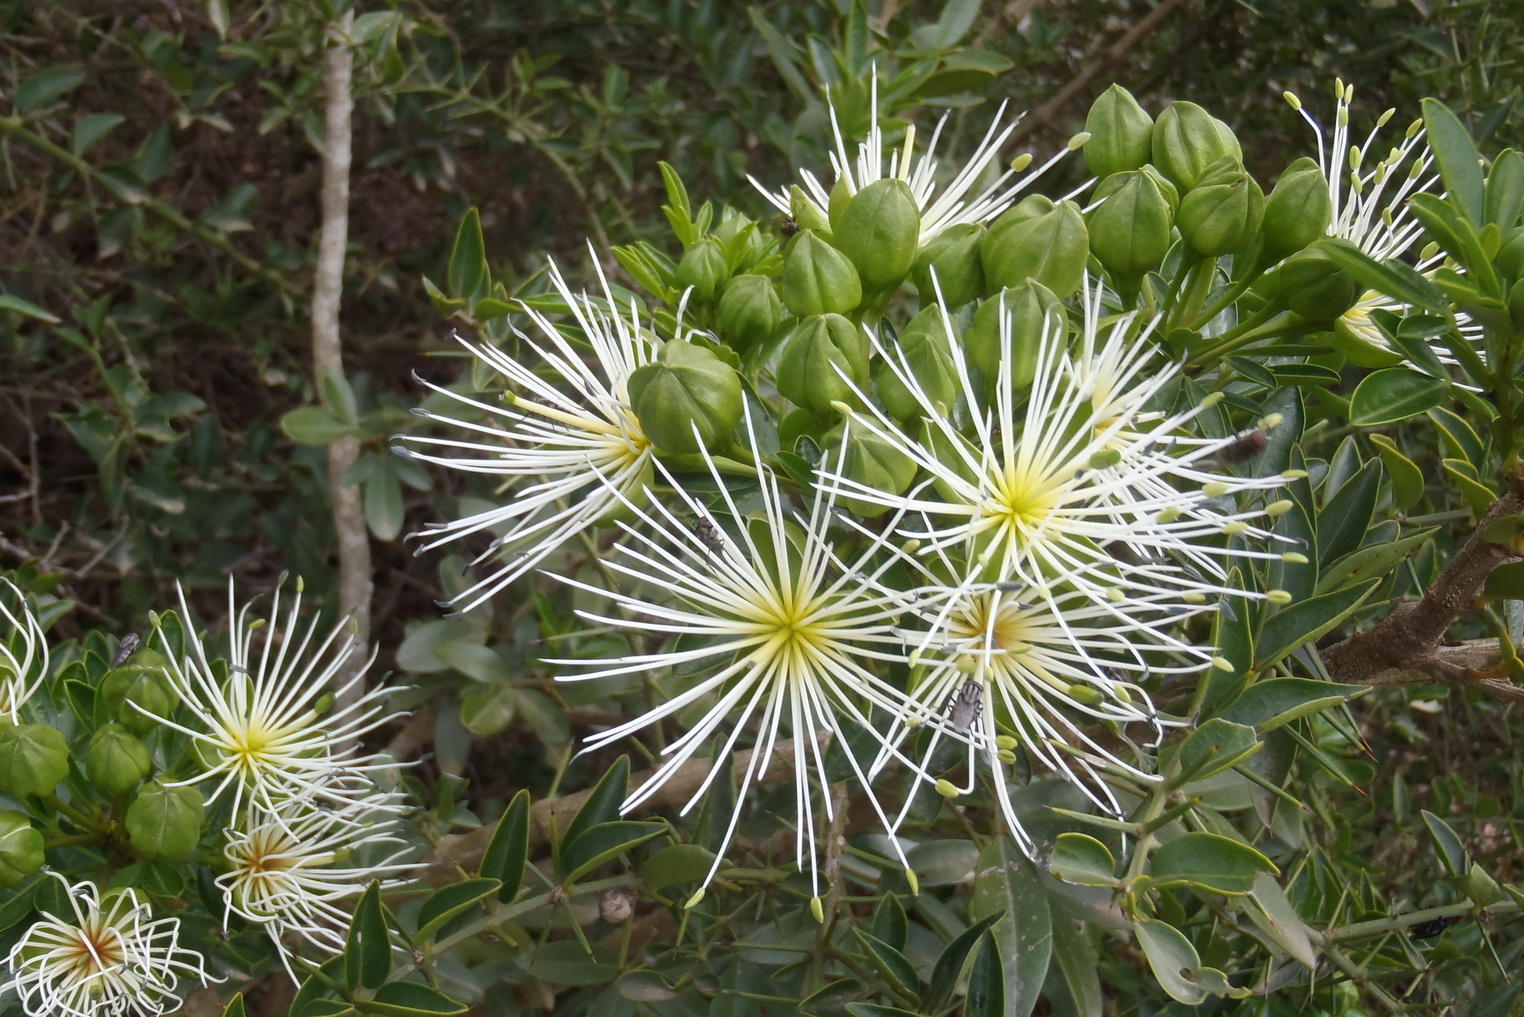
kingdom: Plantae
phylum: Tracheophyta
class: Magnoliopsida
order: Brassicales
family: Capparaceae
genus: Maerua
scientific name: Maerua cafra
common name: Bush maerua
